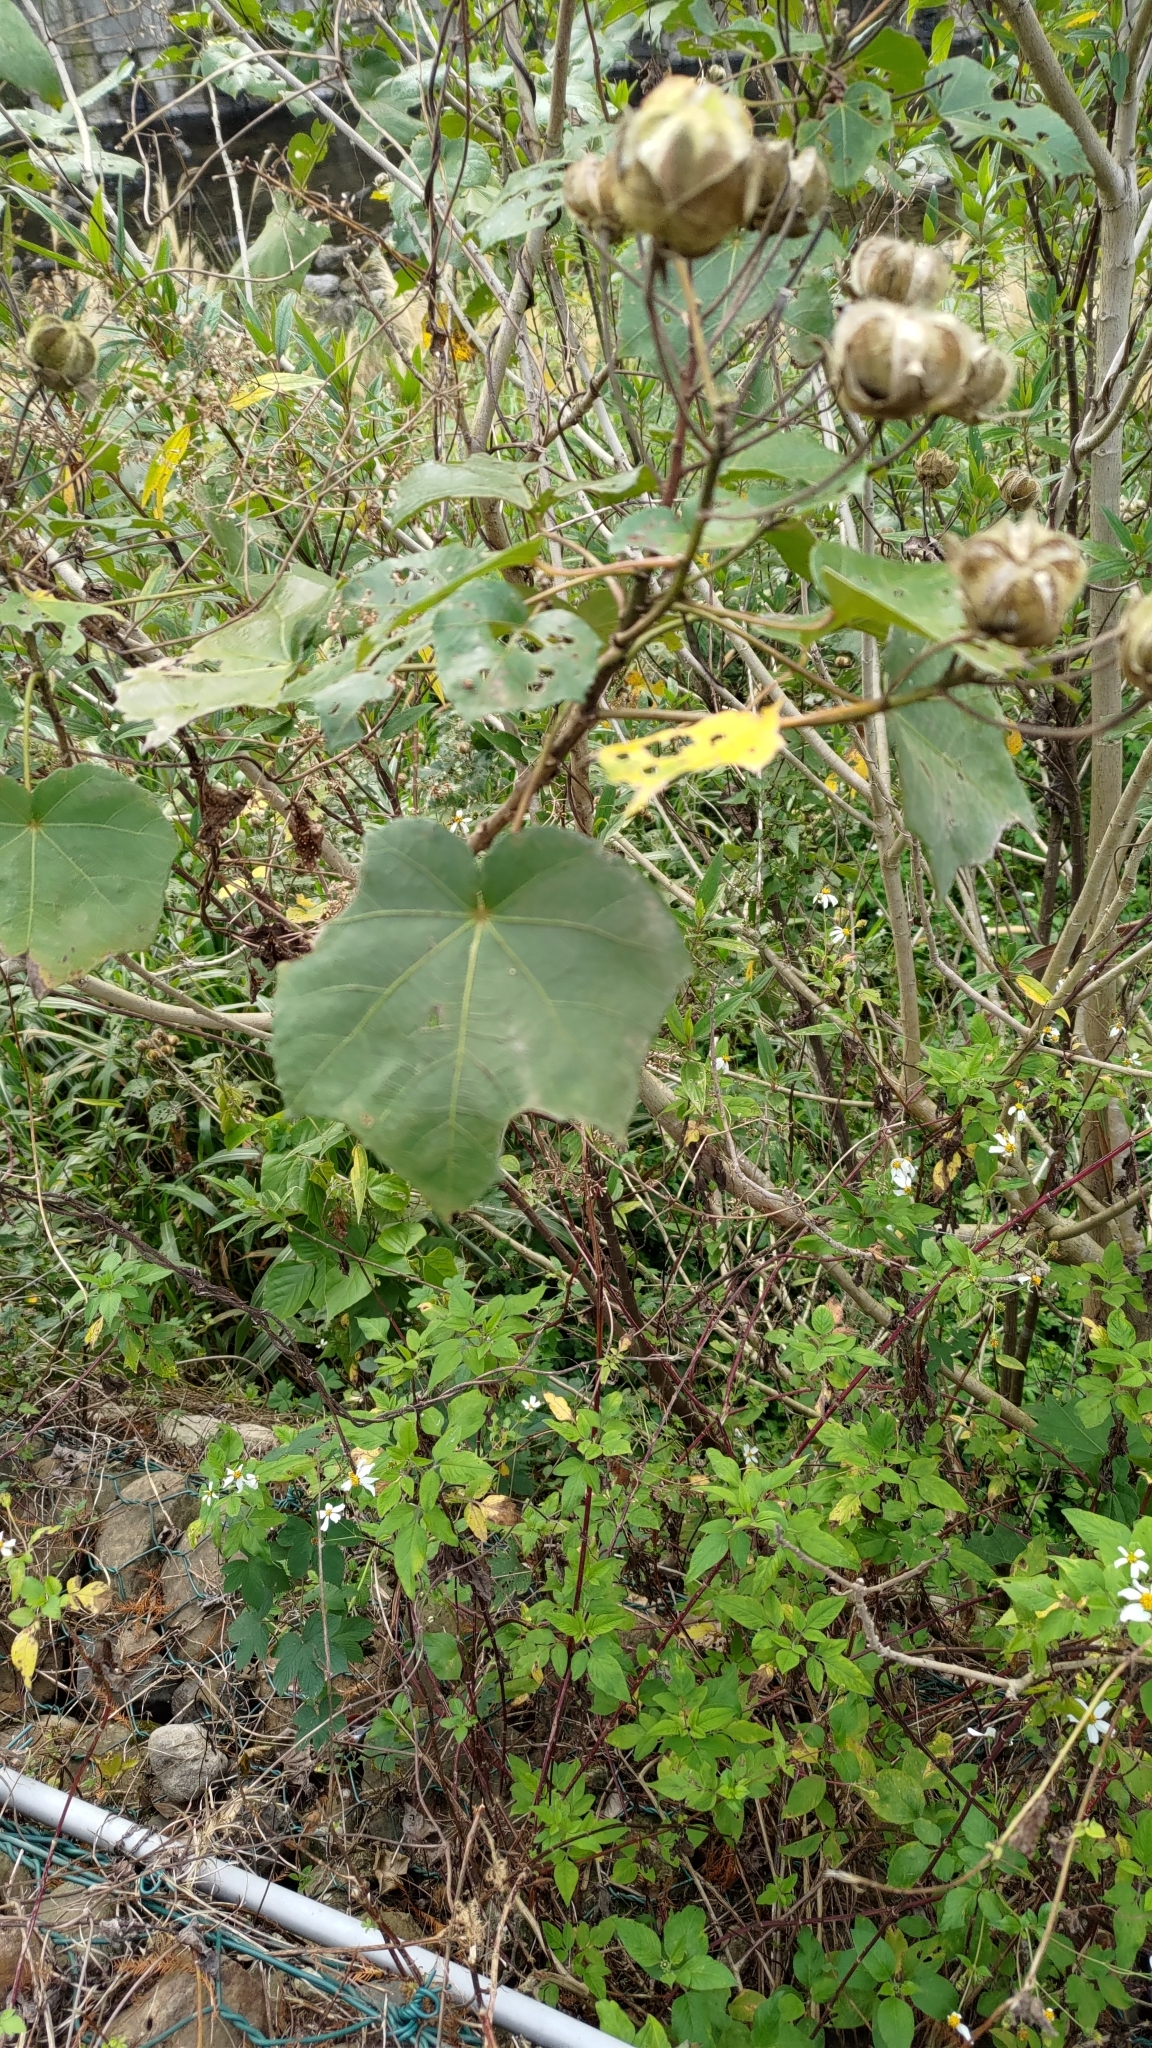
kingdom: Plantae
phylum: Tracheophyta
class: Magnoliopsida
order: Malvales
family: Malvaceae
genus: Hibiscus
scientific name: Hibiscus taiwanensis
